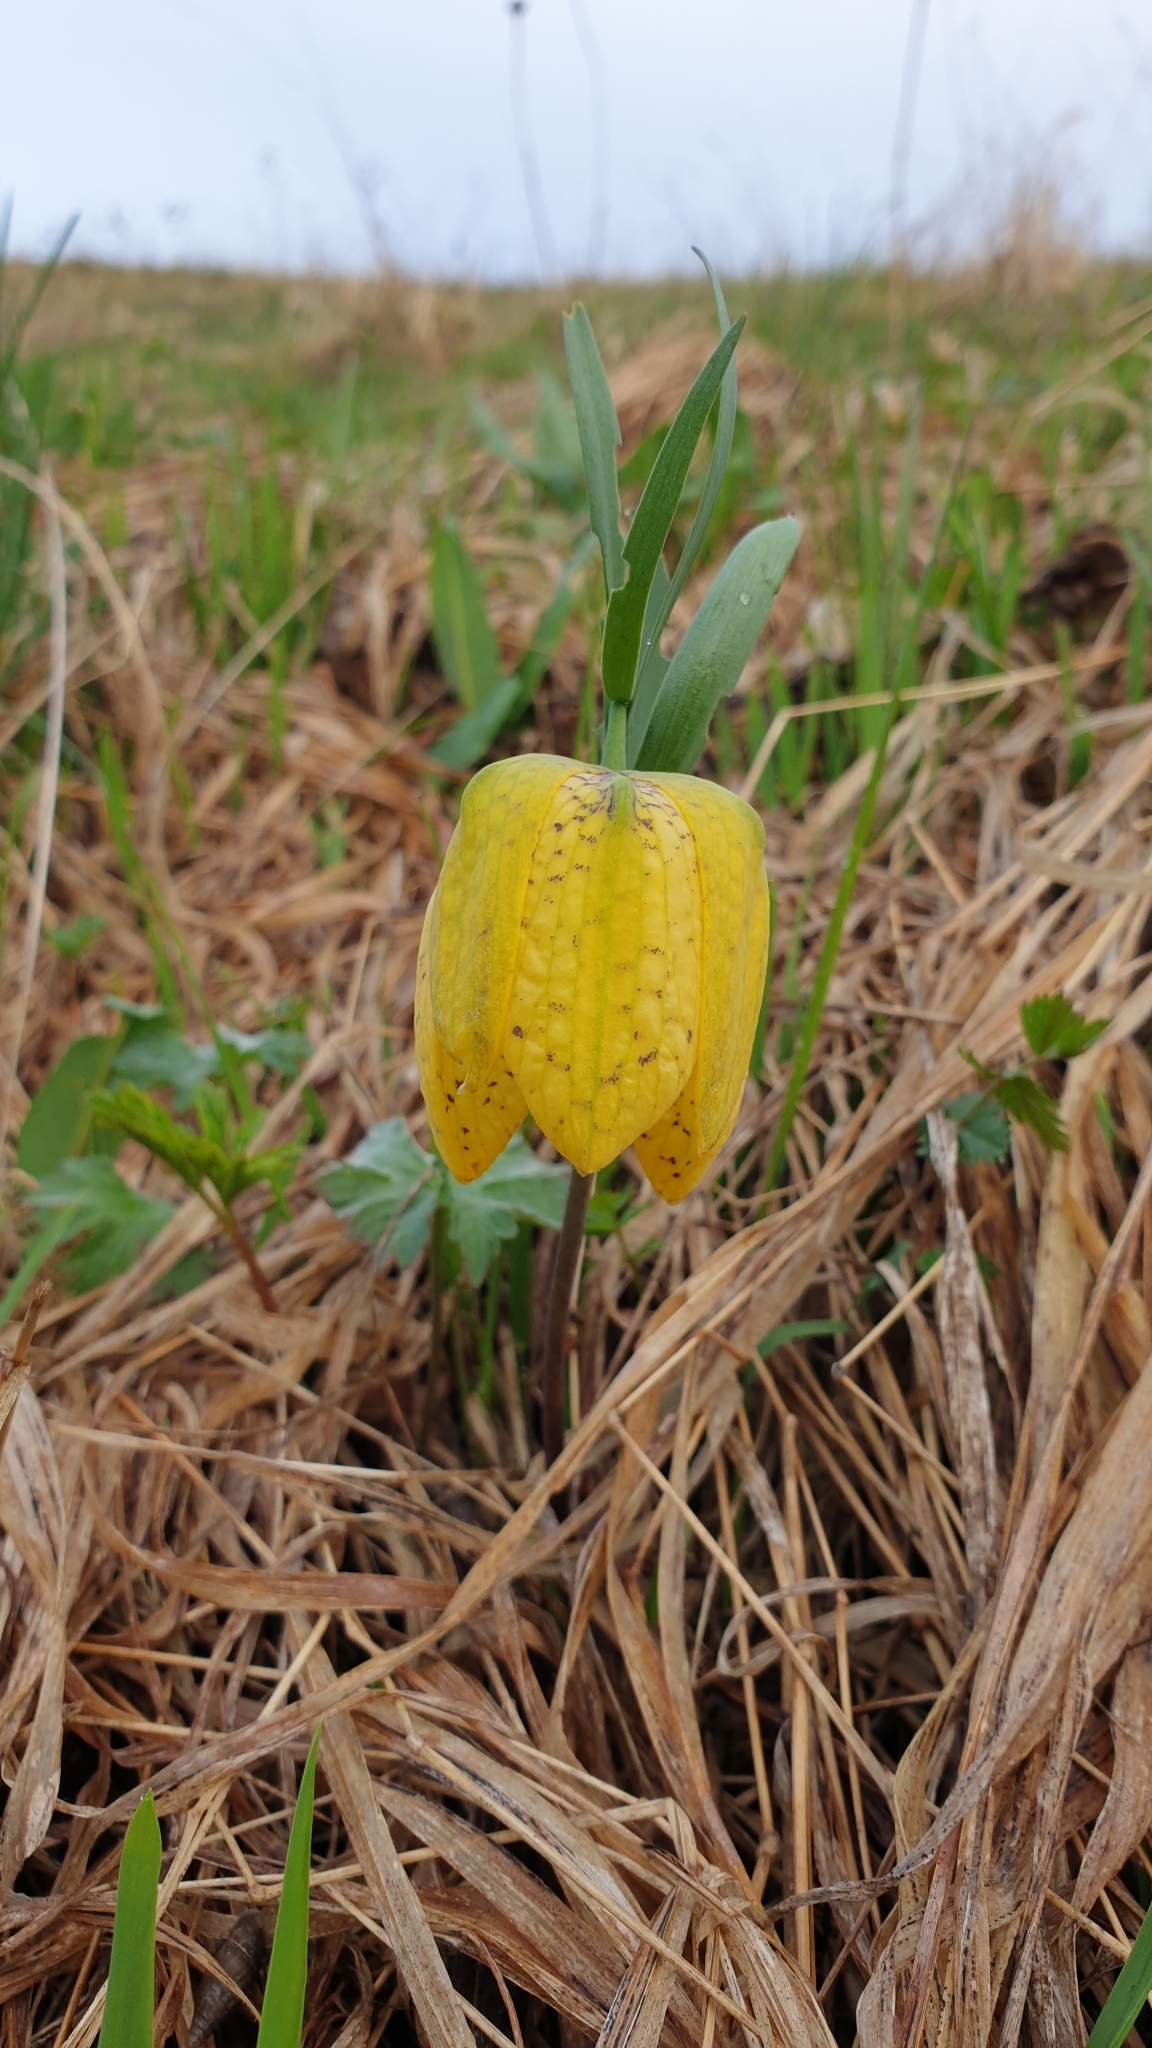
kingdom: Plantae
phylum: Tracheophyta
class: Liliopsida
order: Liliales
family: Liliaceae
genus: Fritillaria
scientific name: Fritillaria collina
